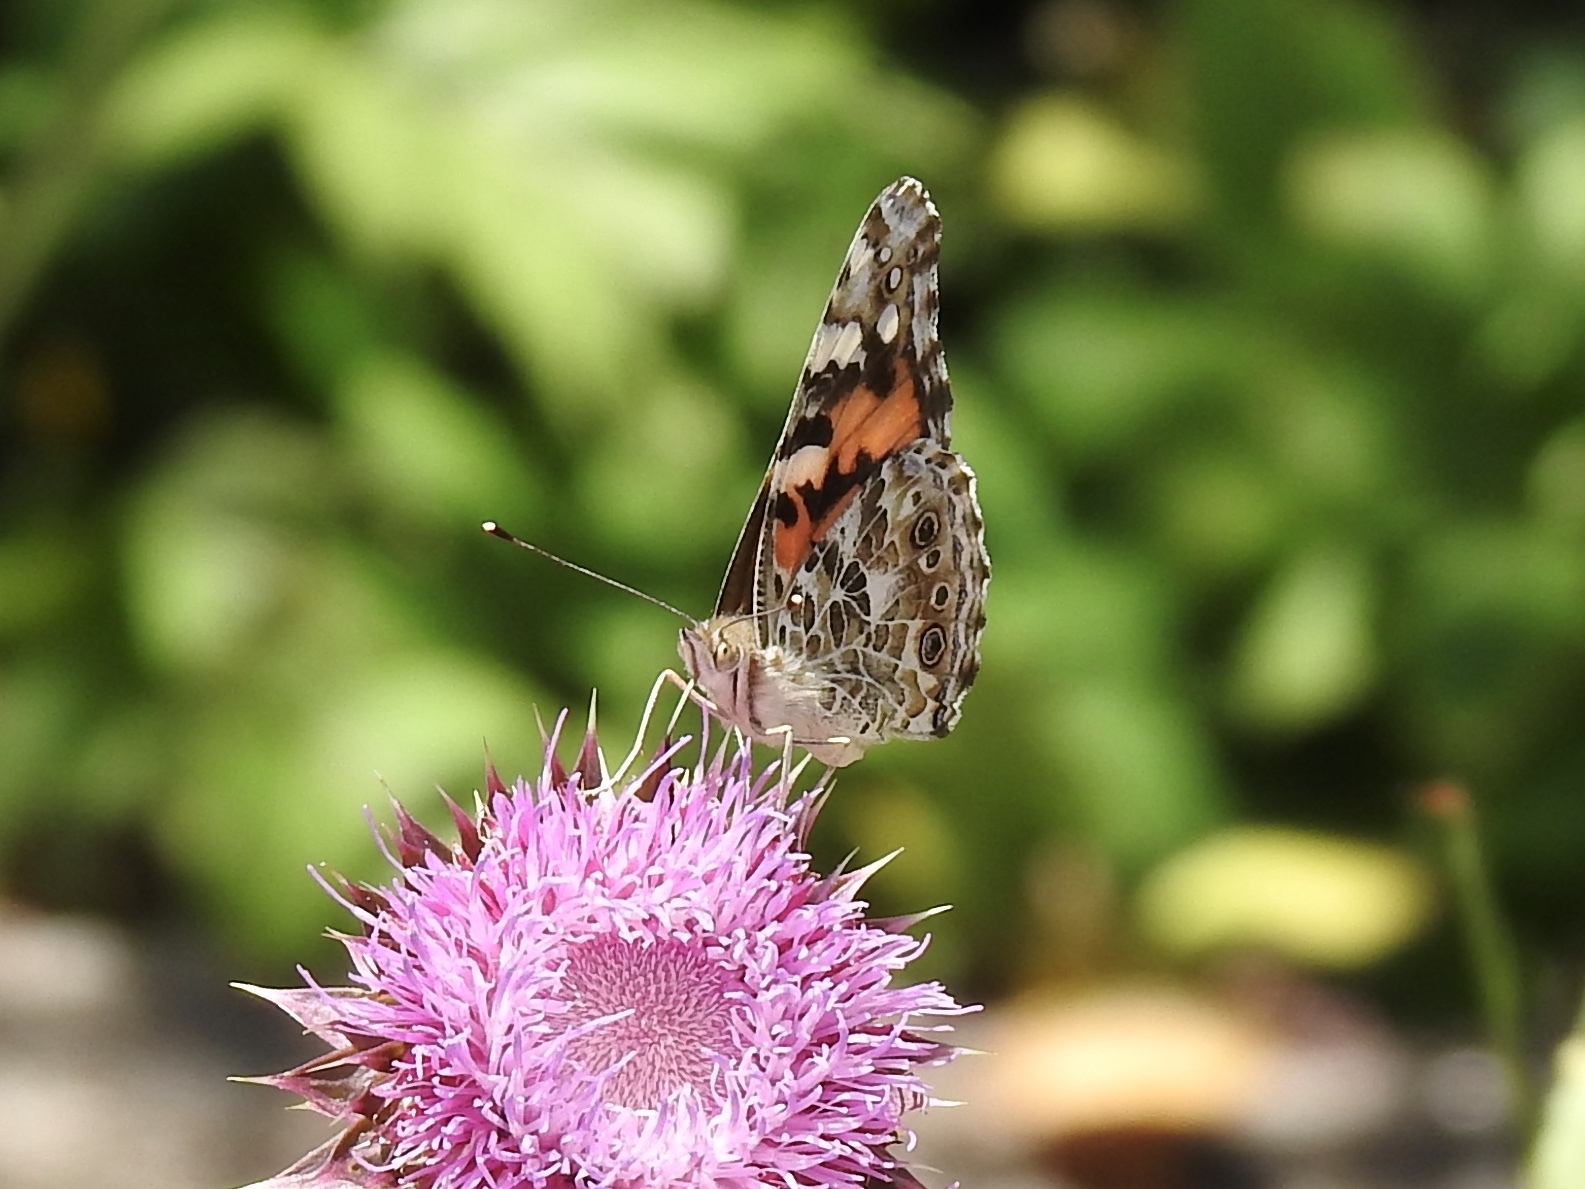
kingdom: Animalia
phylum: Arthropoda
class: Insecta
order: Lepidoptera
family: Nymphalidae
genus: Vanessa
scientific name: Vanessa cardui
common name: Painted lady
